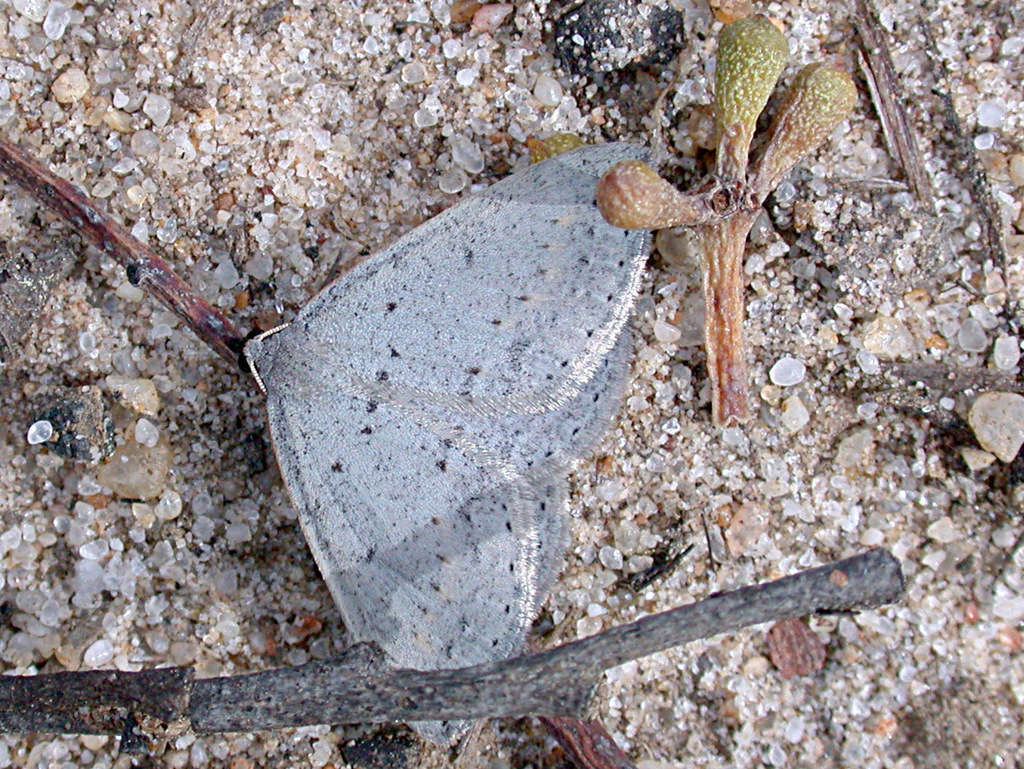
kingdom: Animalia
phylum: Arthropoda
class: Insecta
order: Lepidoptera
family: Geometridae
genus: Taxeotis
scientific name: Taxeotis reserata
